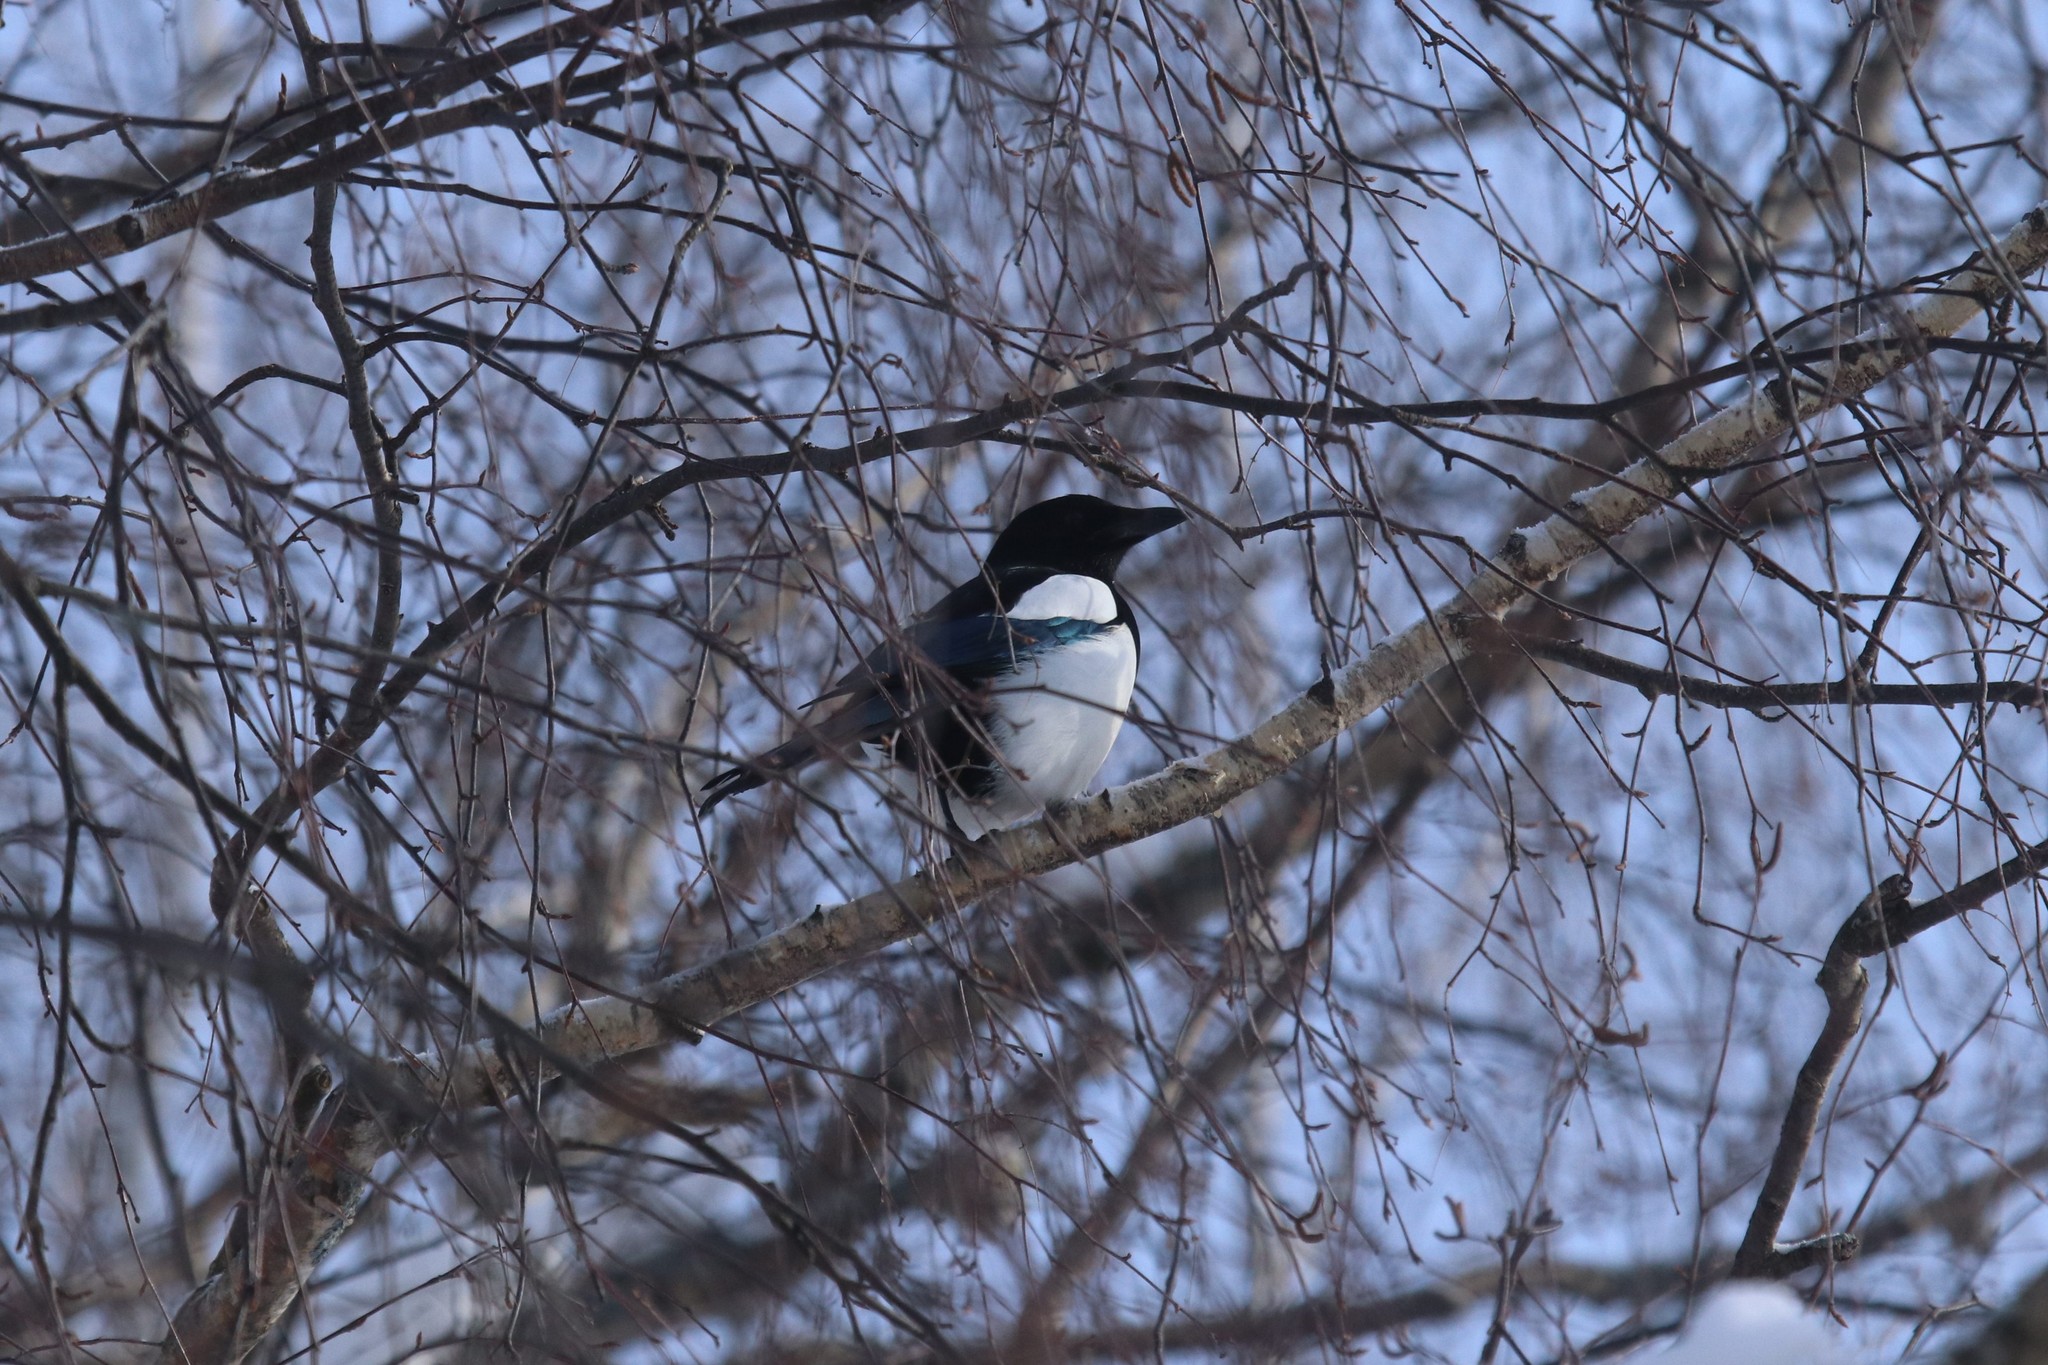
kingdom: Animalia
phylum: Chordata
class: Aves
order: Passeriformes
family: Corvidae
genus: Pica
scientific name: Pica pica
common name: Eurasian magpie
